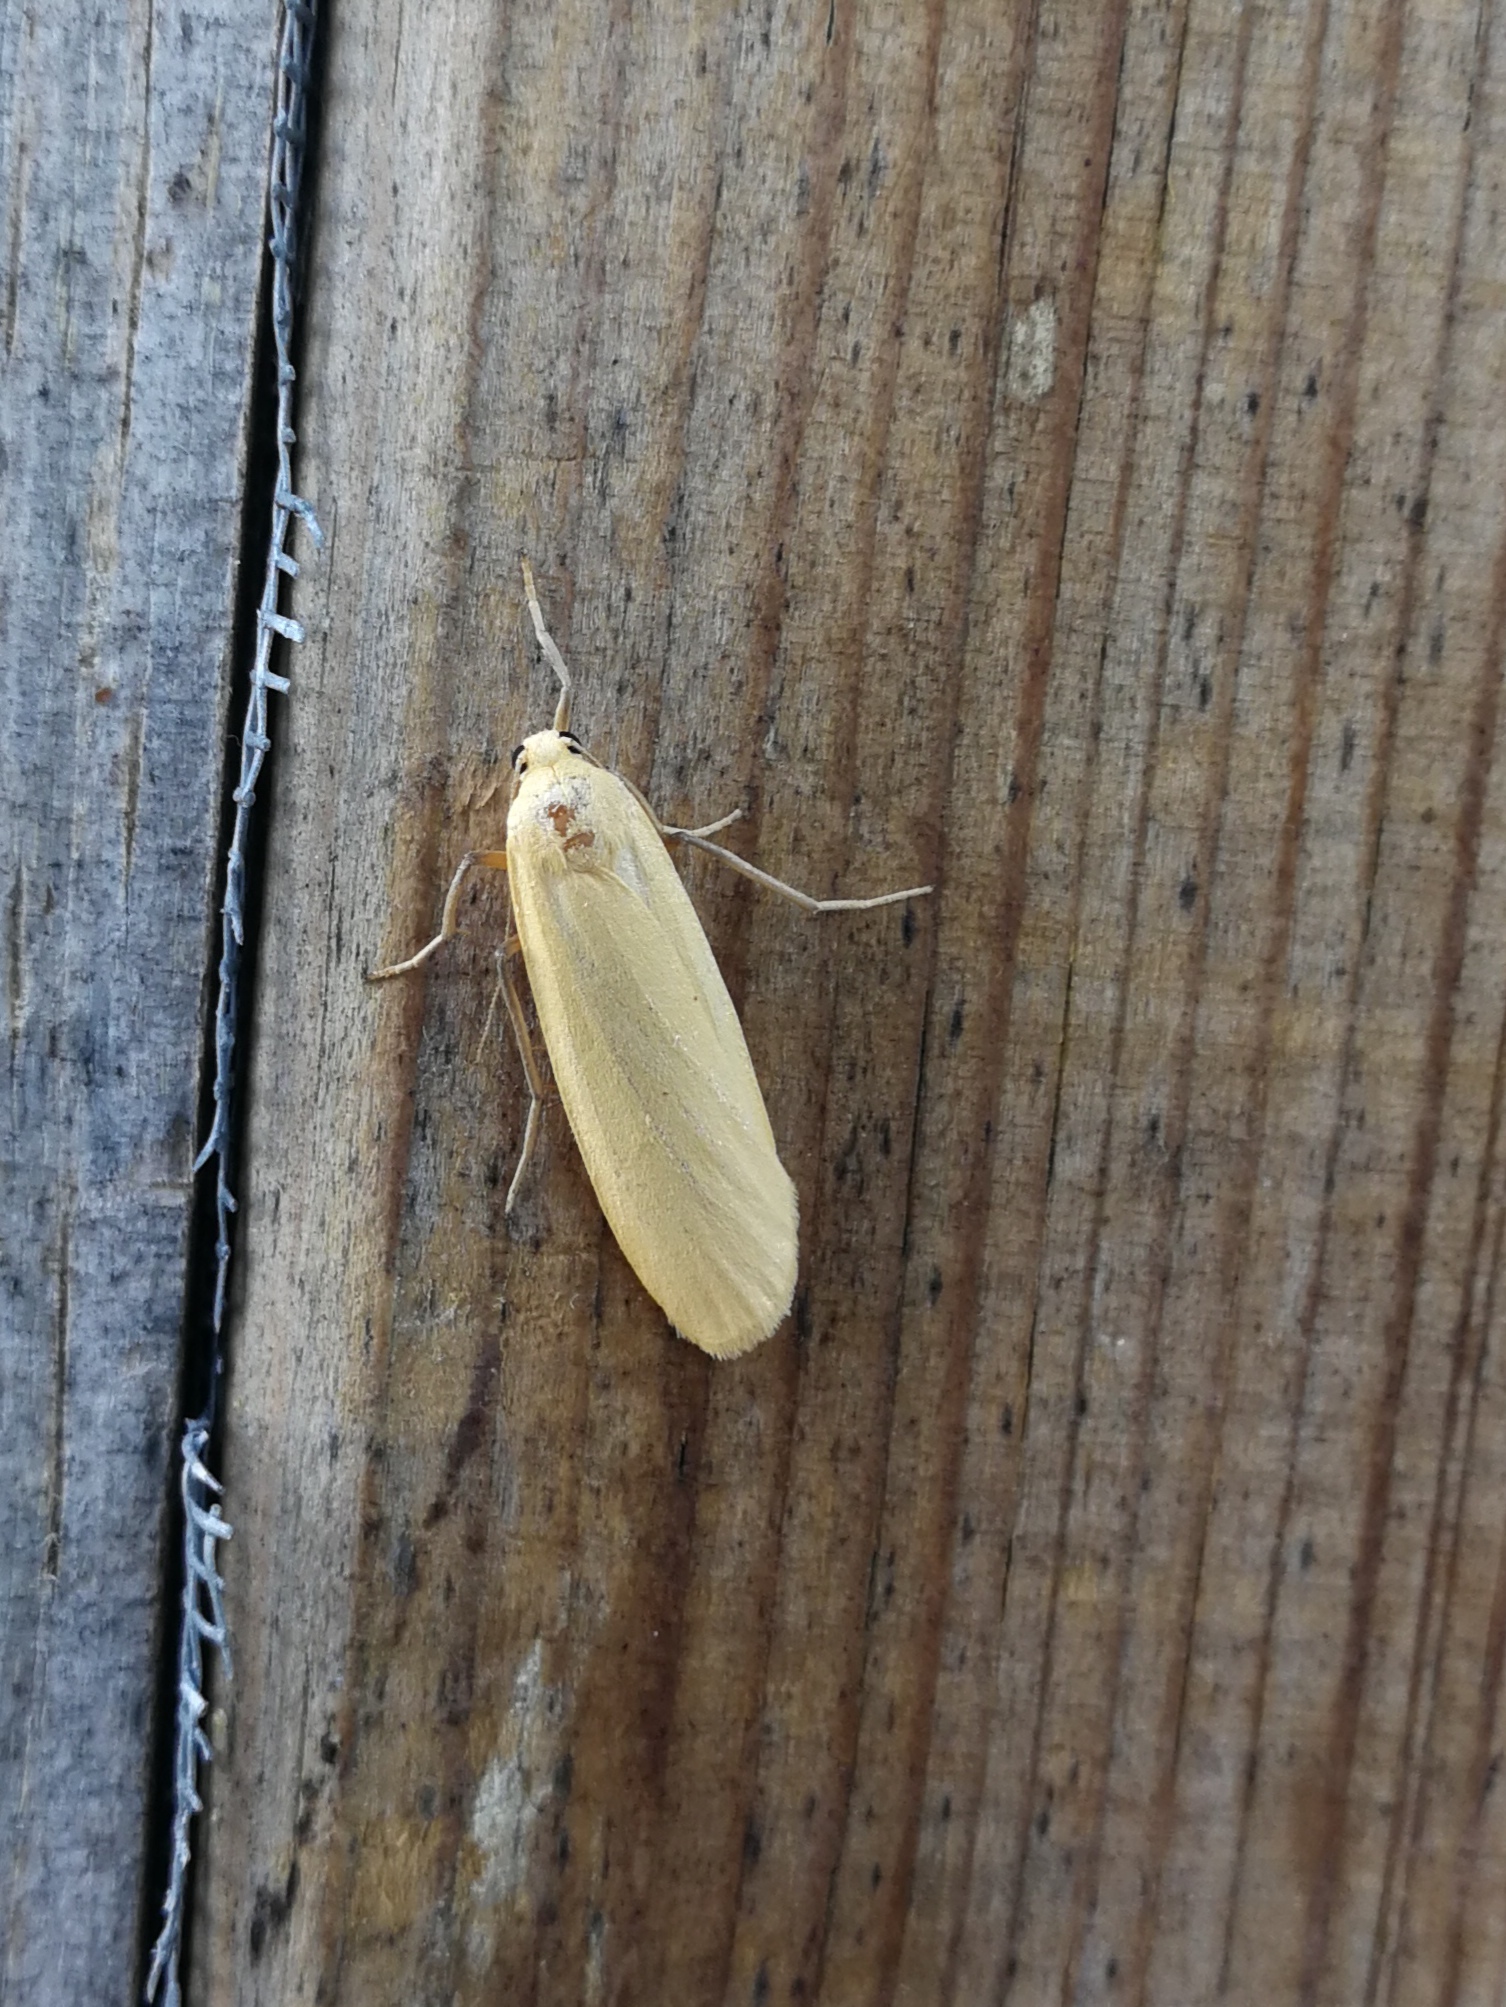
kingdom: Animalia
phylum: Arthropoda
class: Insecta
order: Lepidoptera
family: Erebidae
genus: Wittia
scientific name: Wittia sororcula
